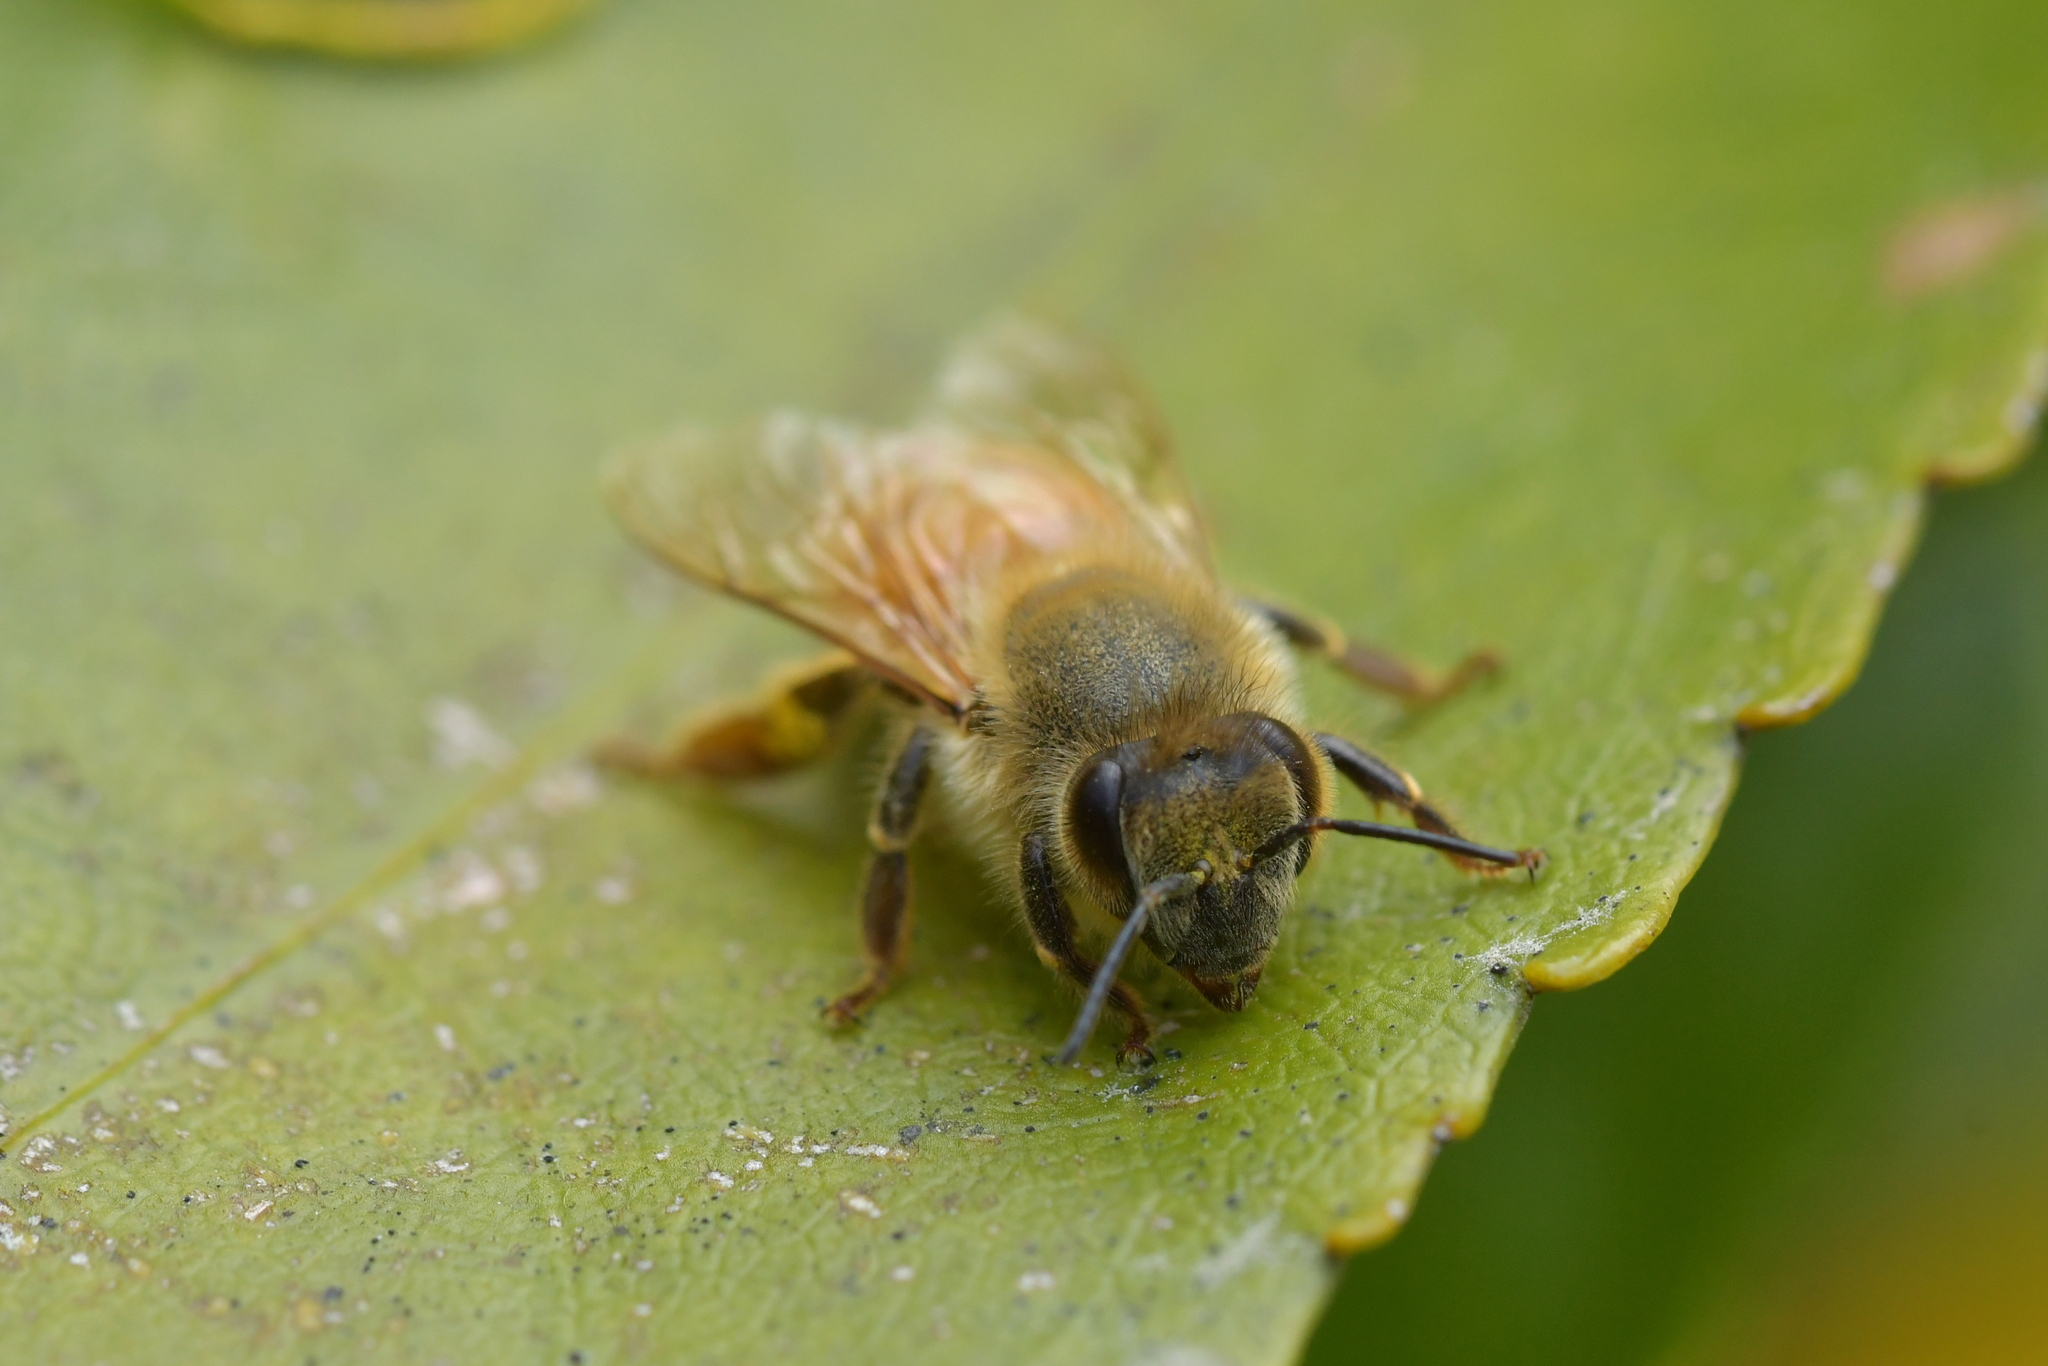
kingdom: Animalia
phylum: Arthropoda
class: Insecta
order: Hymenoptera
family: Apidae
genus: Apis
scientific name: Apis mellifera
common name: Honey bee
